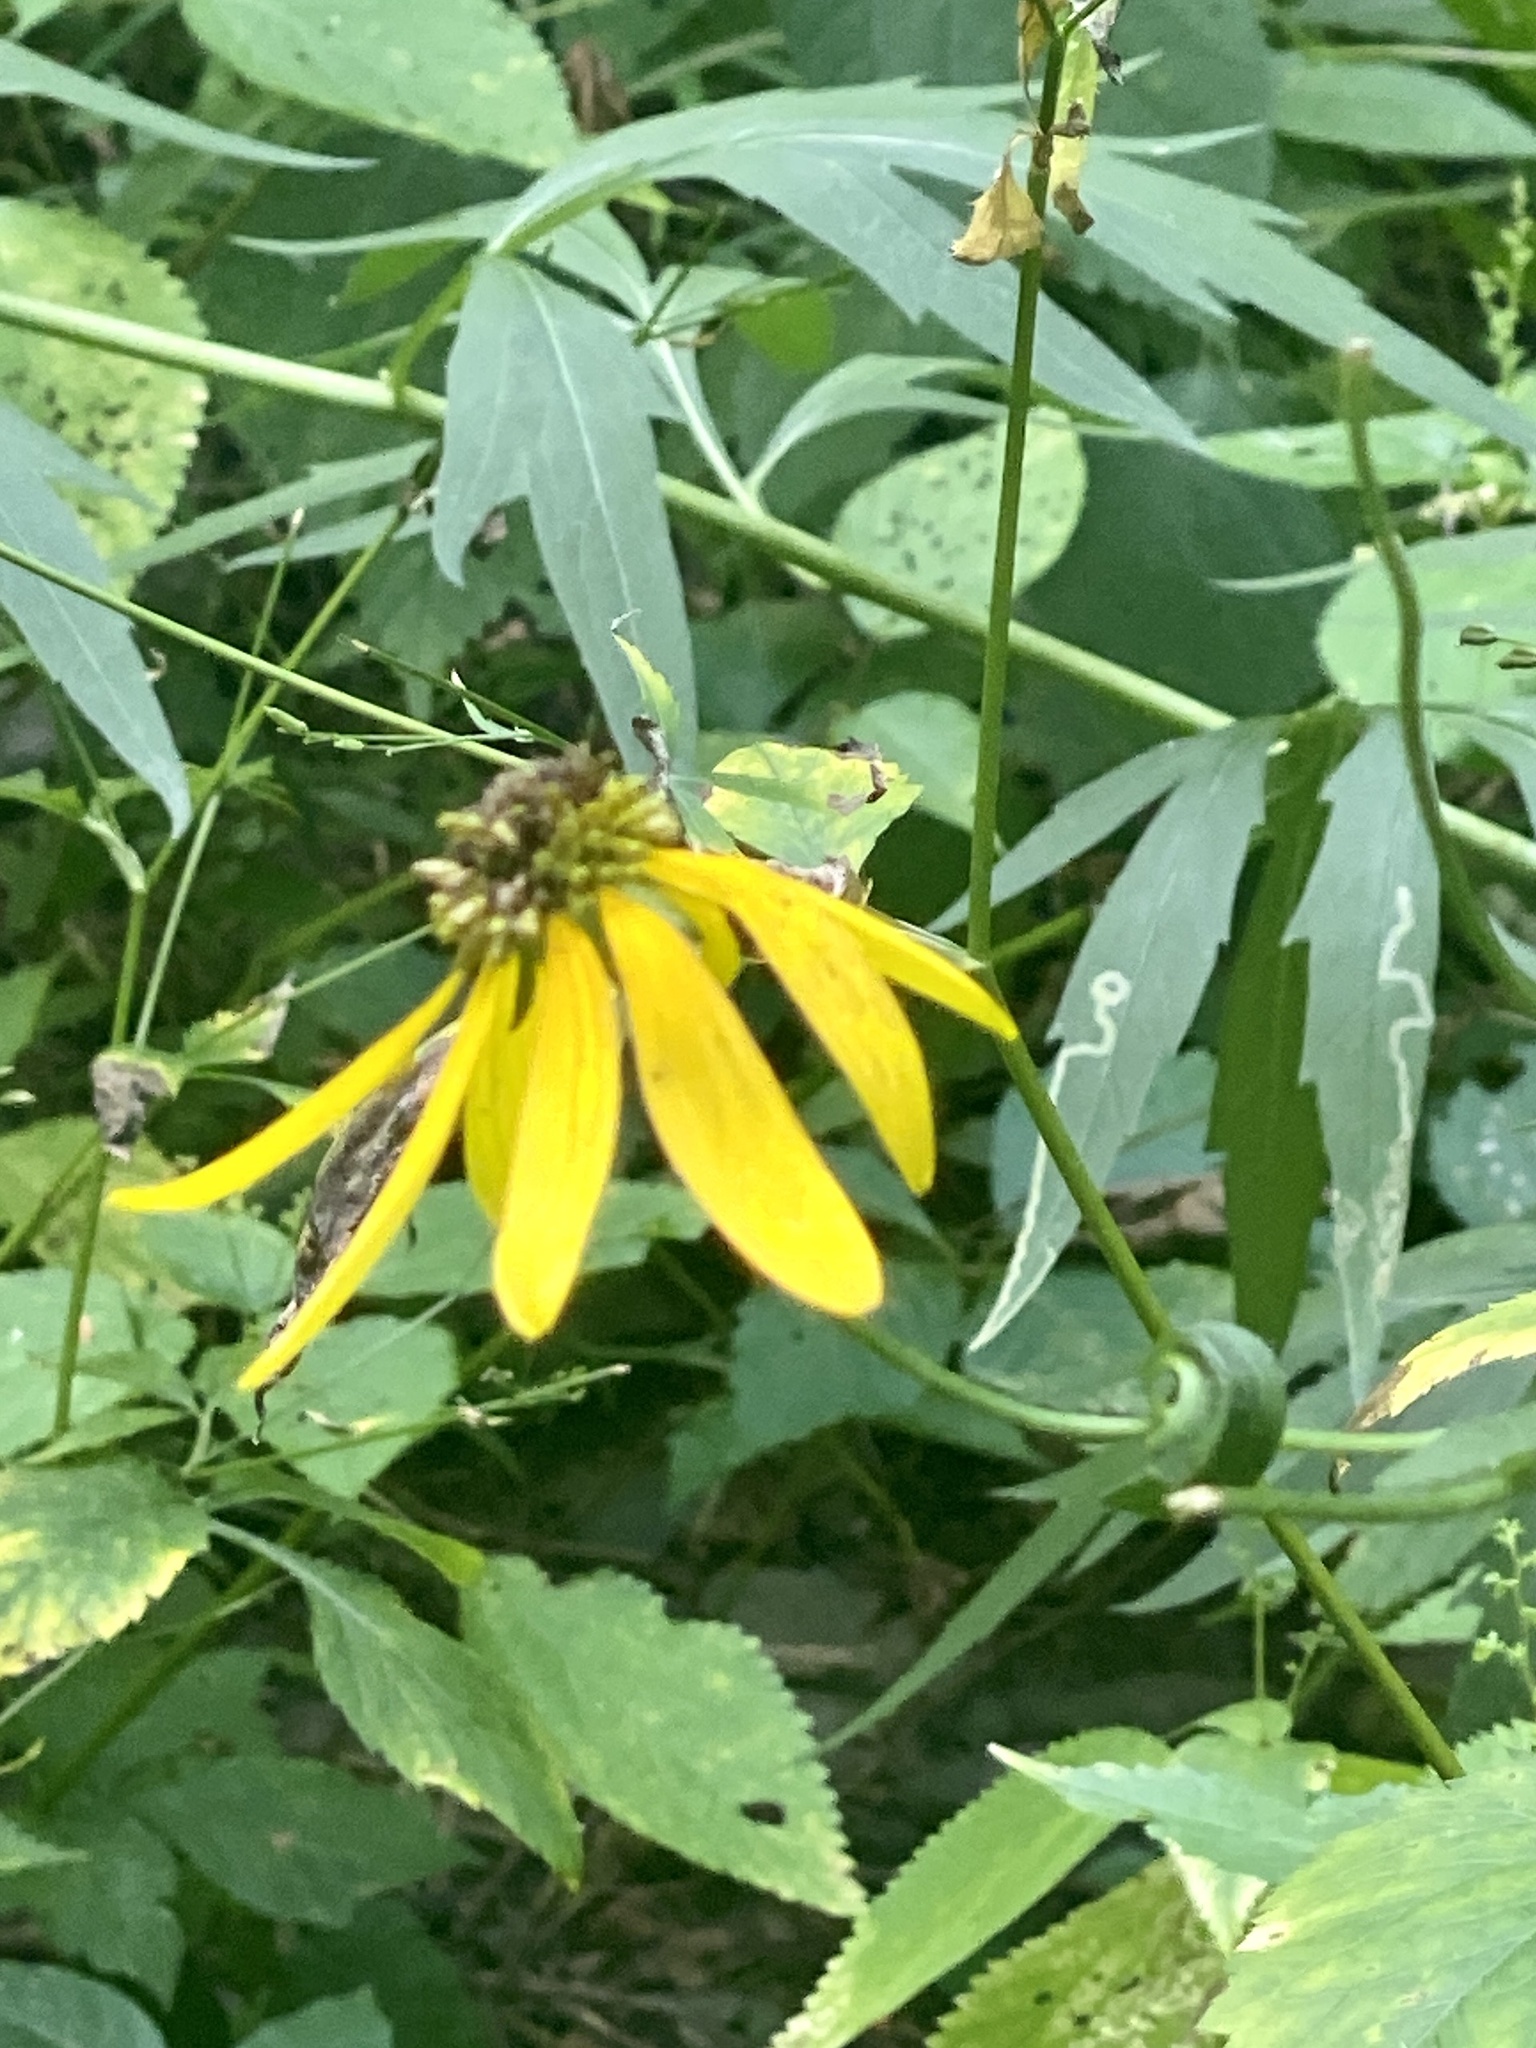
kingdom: Plantae
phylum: Tracheophyta
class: Magnoliopsida
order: Asterales
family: Asteraceae
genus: Rudbeckia
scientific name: Rudbeckia laciniata
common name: Coneflower
